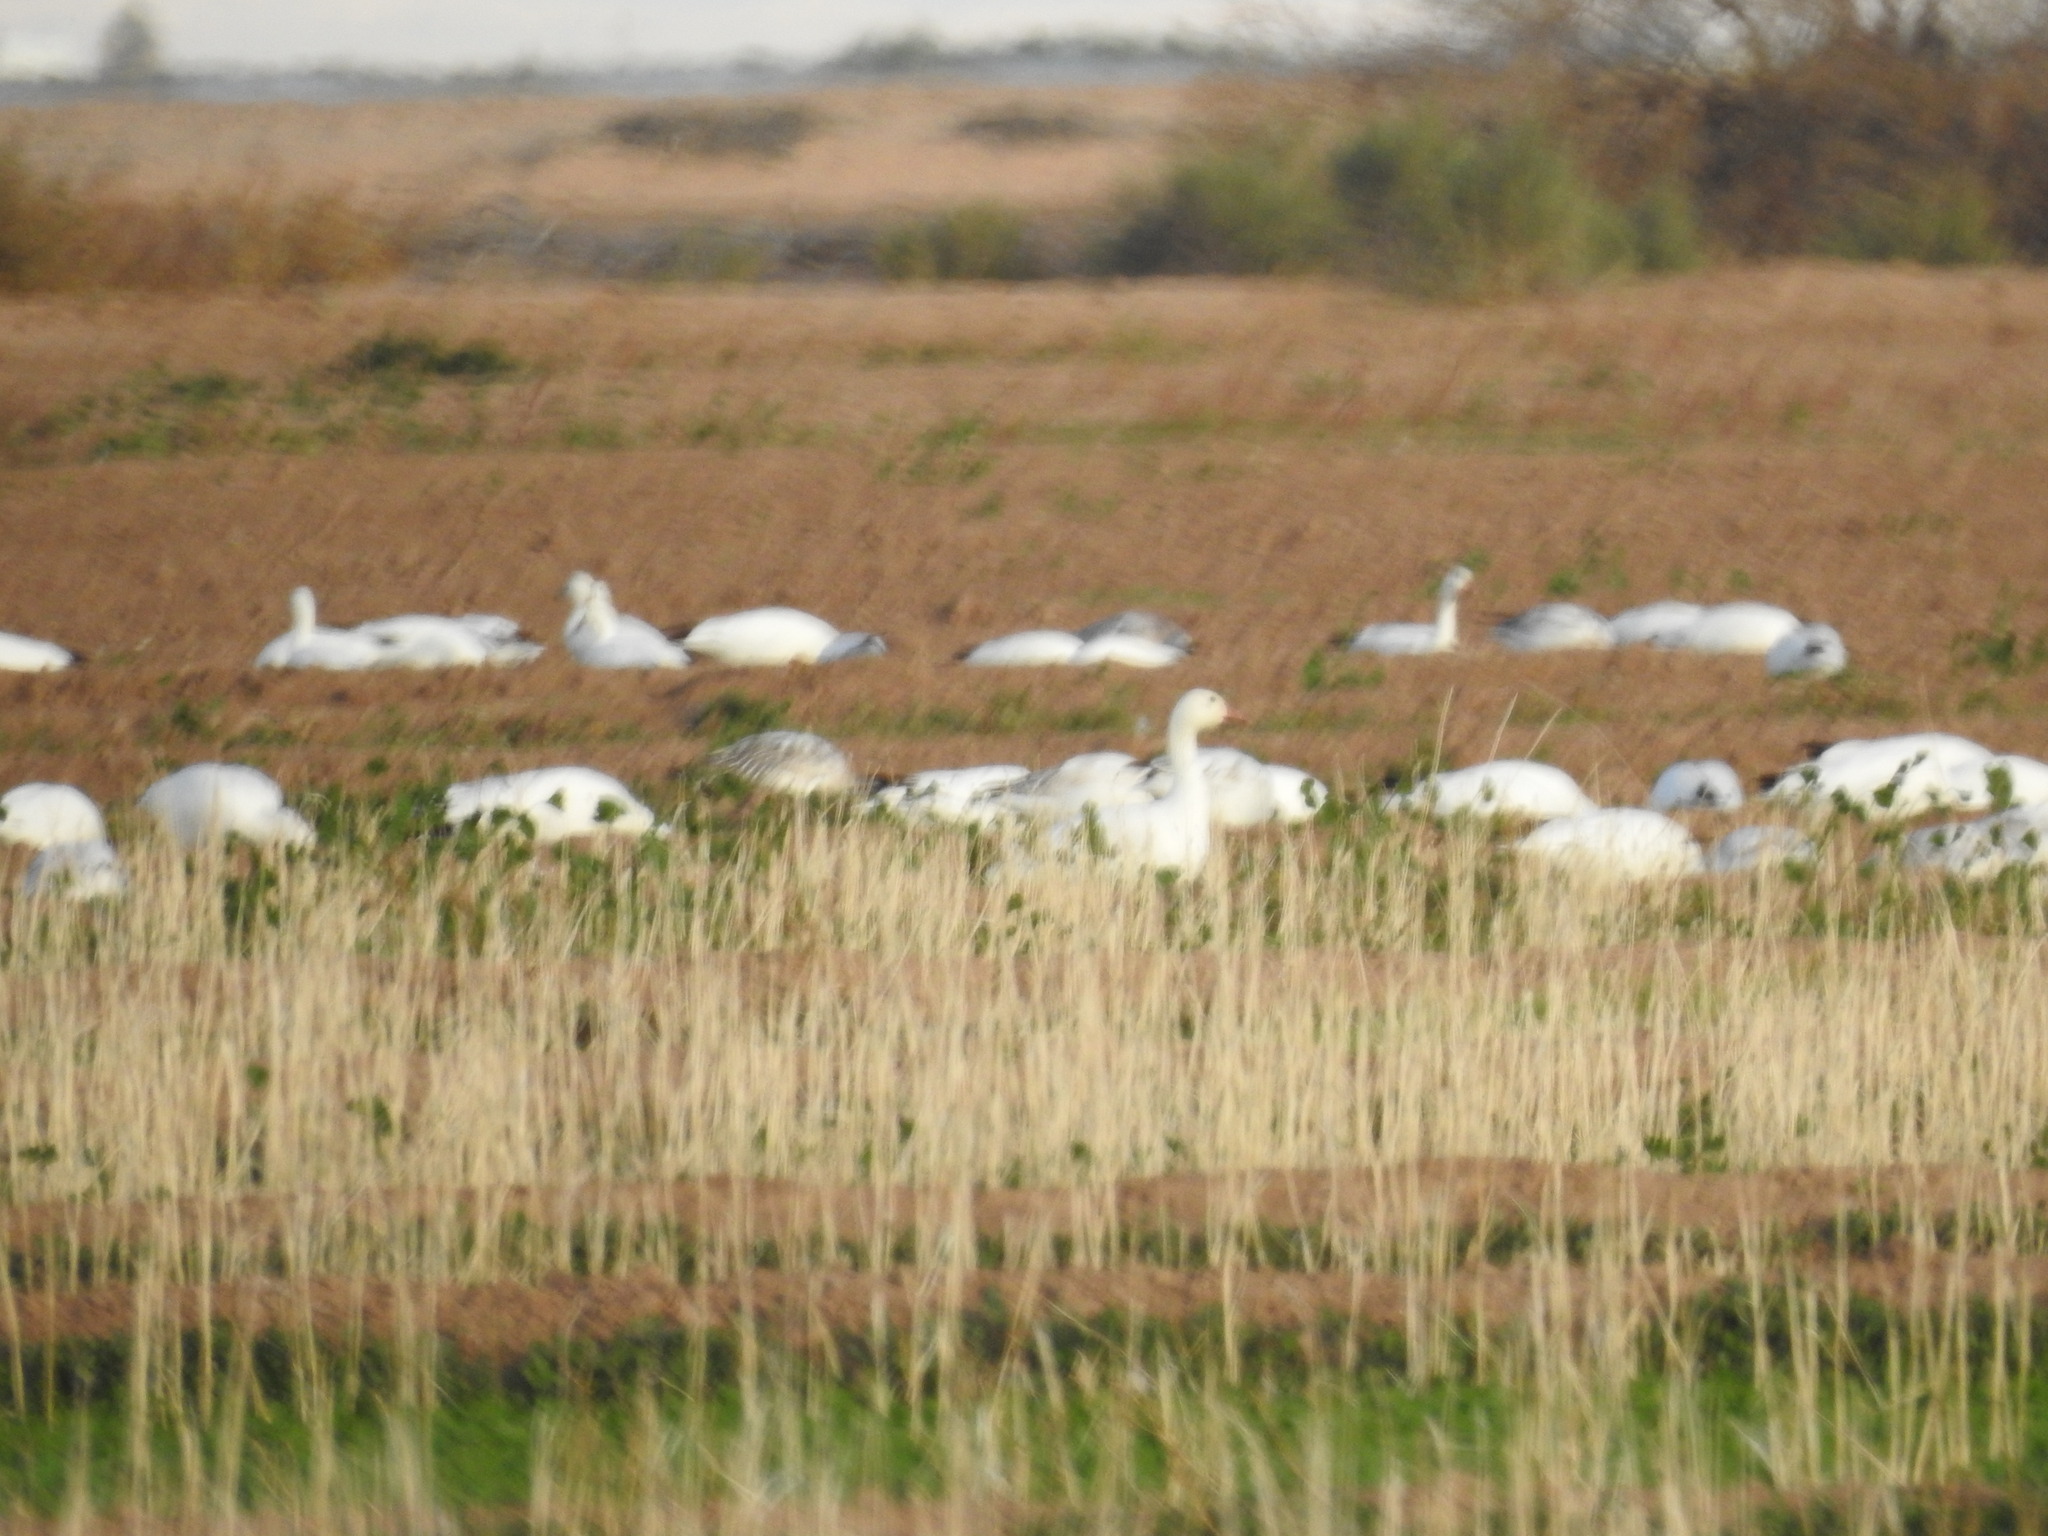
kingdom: Animalia
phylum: Chordata
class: Aves
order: Anseriformes
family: Anatidae
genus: Anser
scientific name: Anser caerulescens
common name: Snow goose
